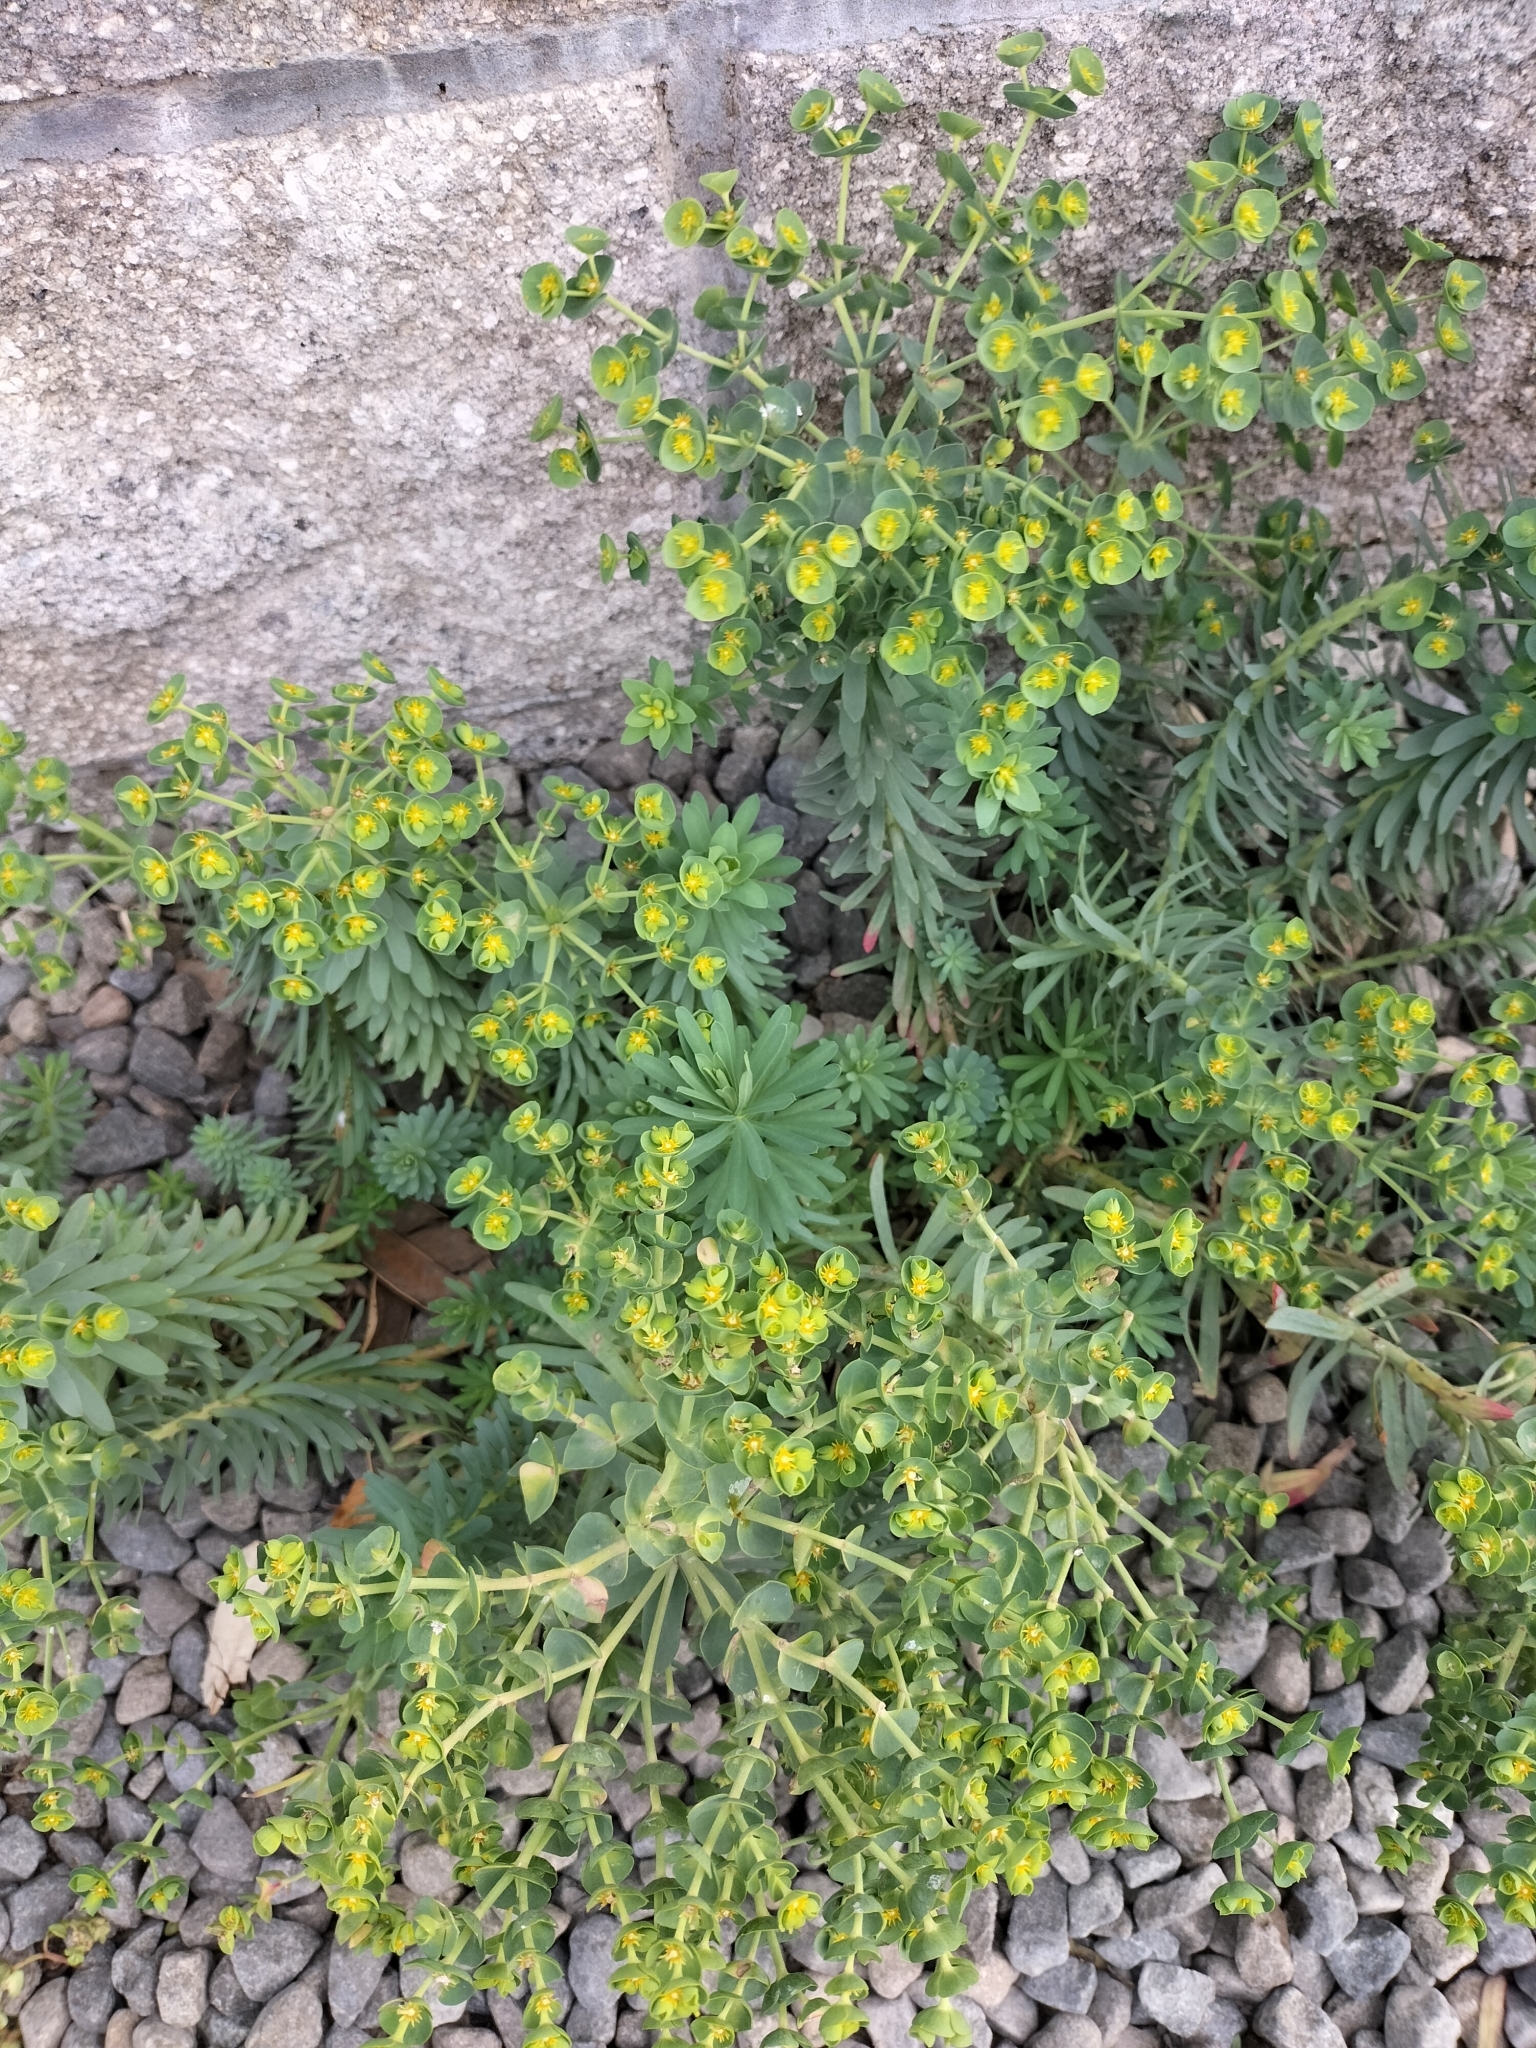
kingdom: Plantae
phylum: Tracheophyta
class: Magnoliopsida
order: Malpighiales
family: Euphorbiaceae
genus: Euphorbia
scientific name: Euphorbia segetalis
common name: Corn spurge
